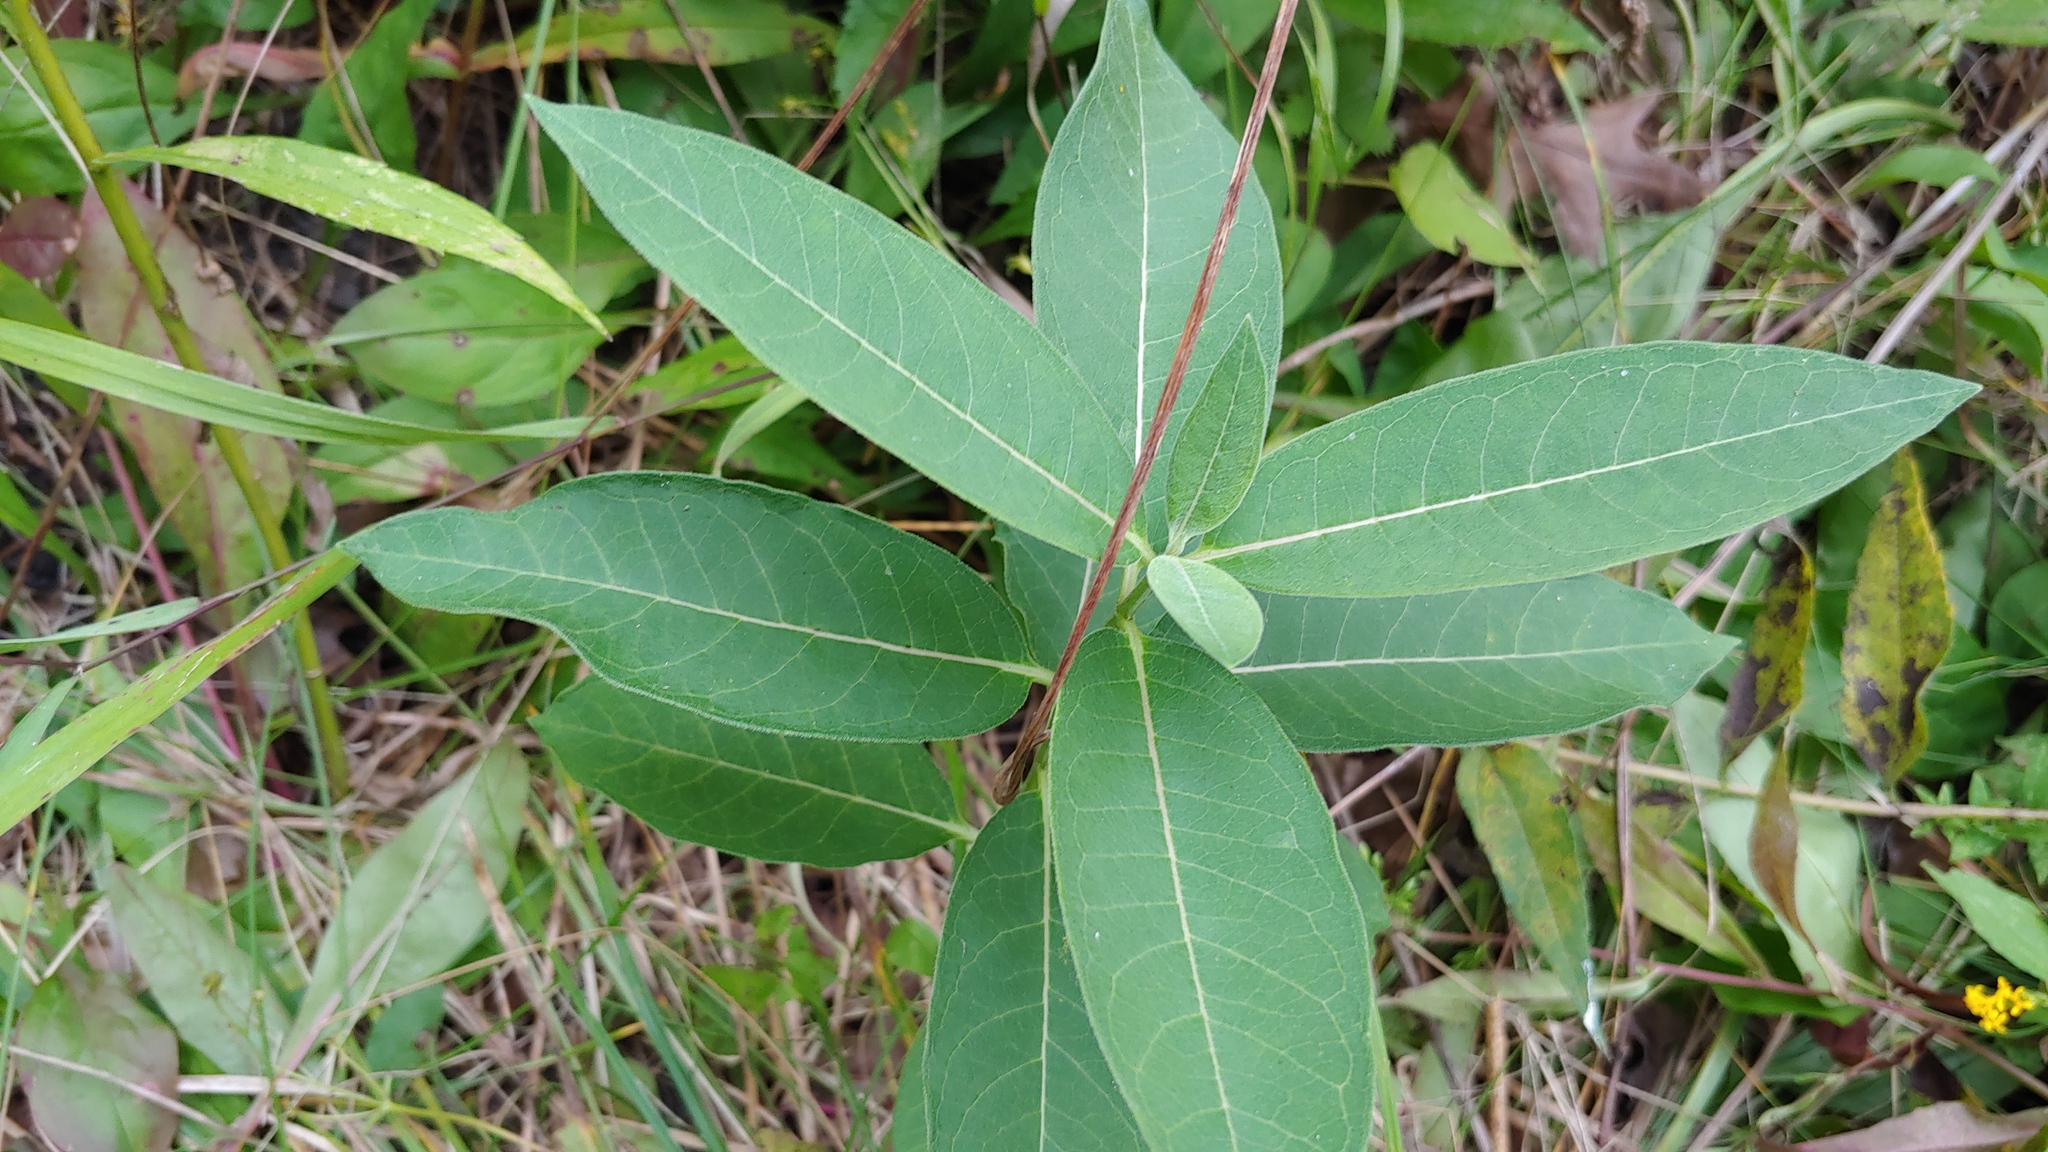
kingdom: Plantae
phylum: Tracheophyta
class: Magnoliopsida
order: Gentianales
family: Apocynaceae
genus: Asclepias
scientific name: Asclepias syriaca
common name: Common milkweed
